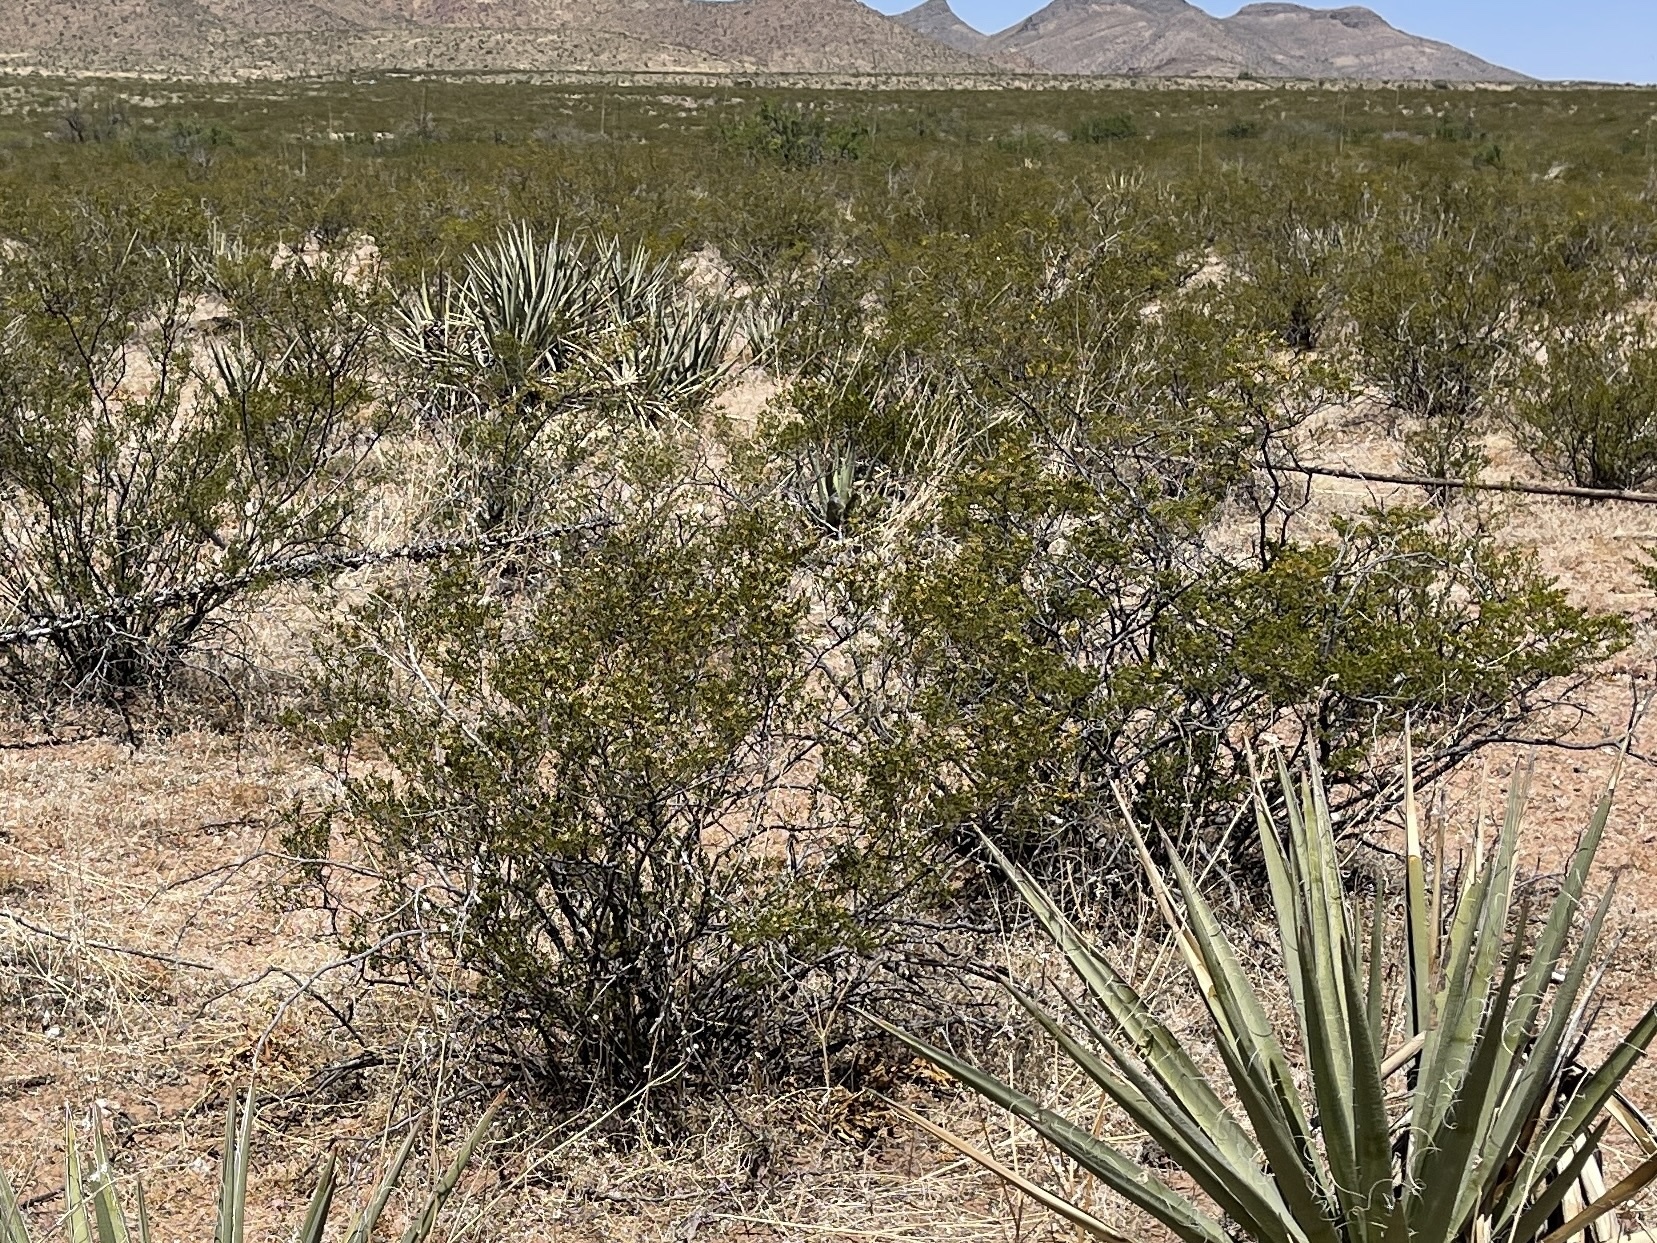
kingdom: Plantae
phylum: Tracheophyta
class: Magnoliopsida
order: Zygophyllales
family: Zygophyllaceae
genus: Larrea
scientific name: Larrea tridentata
